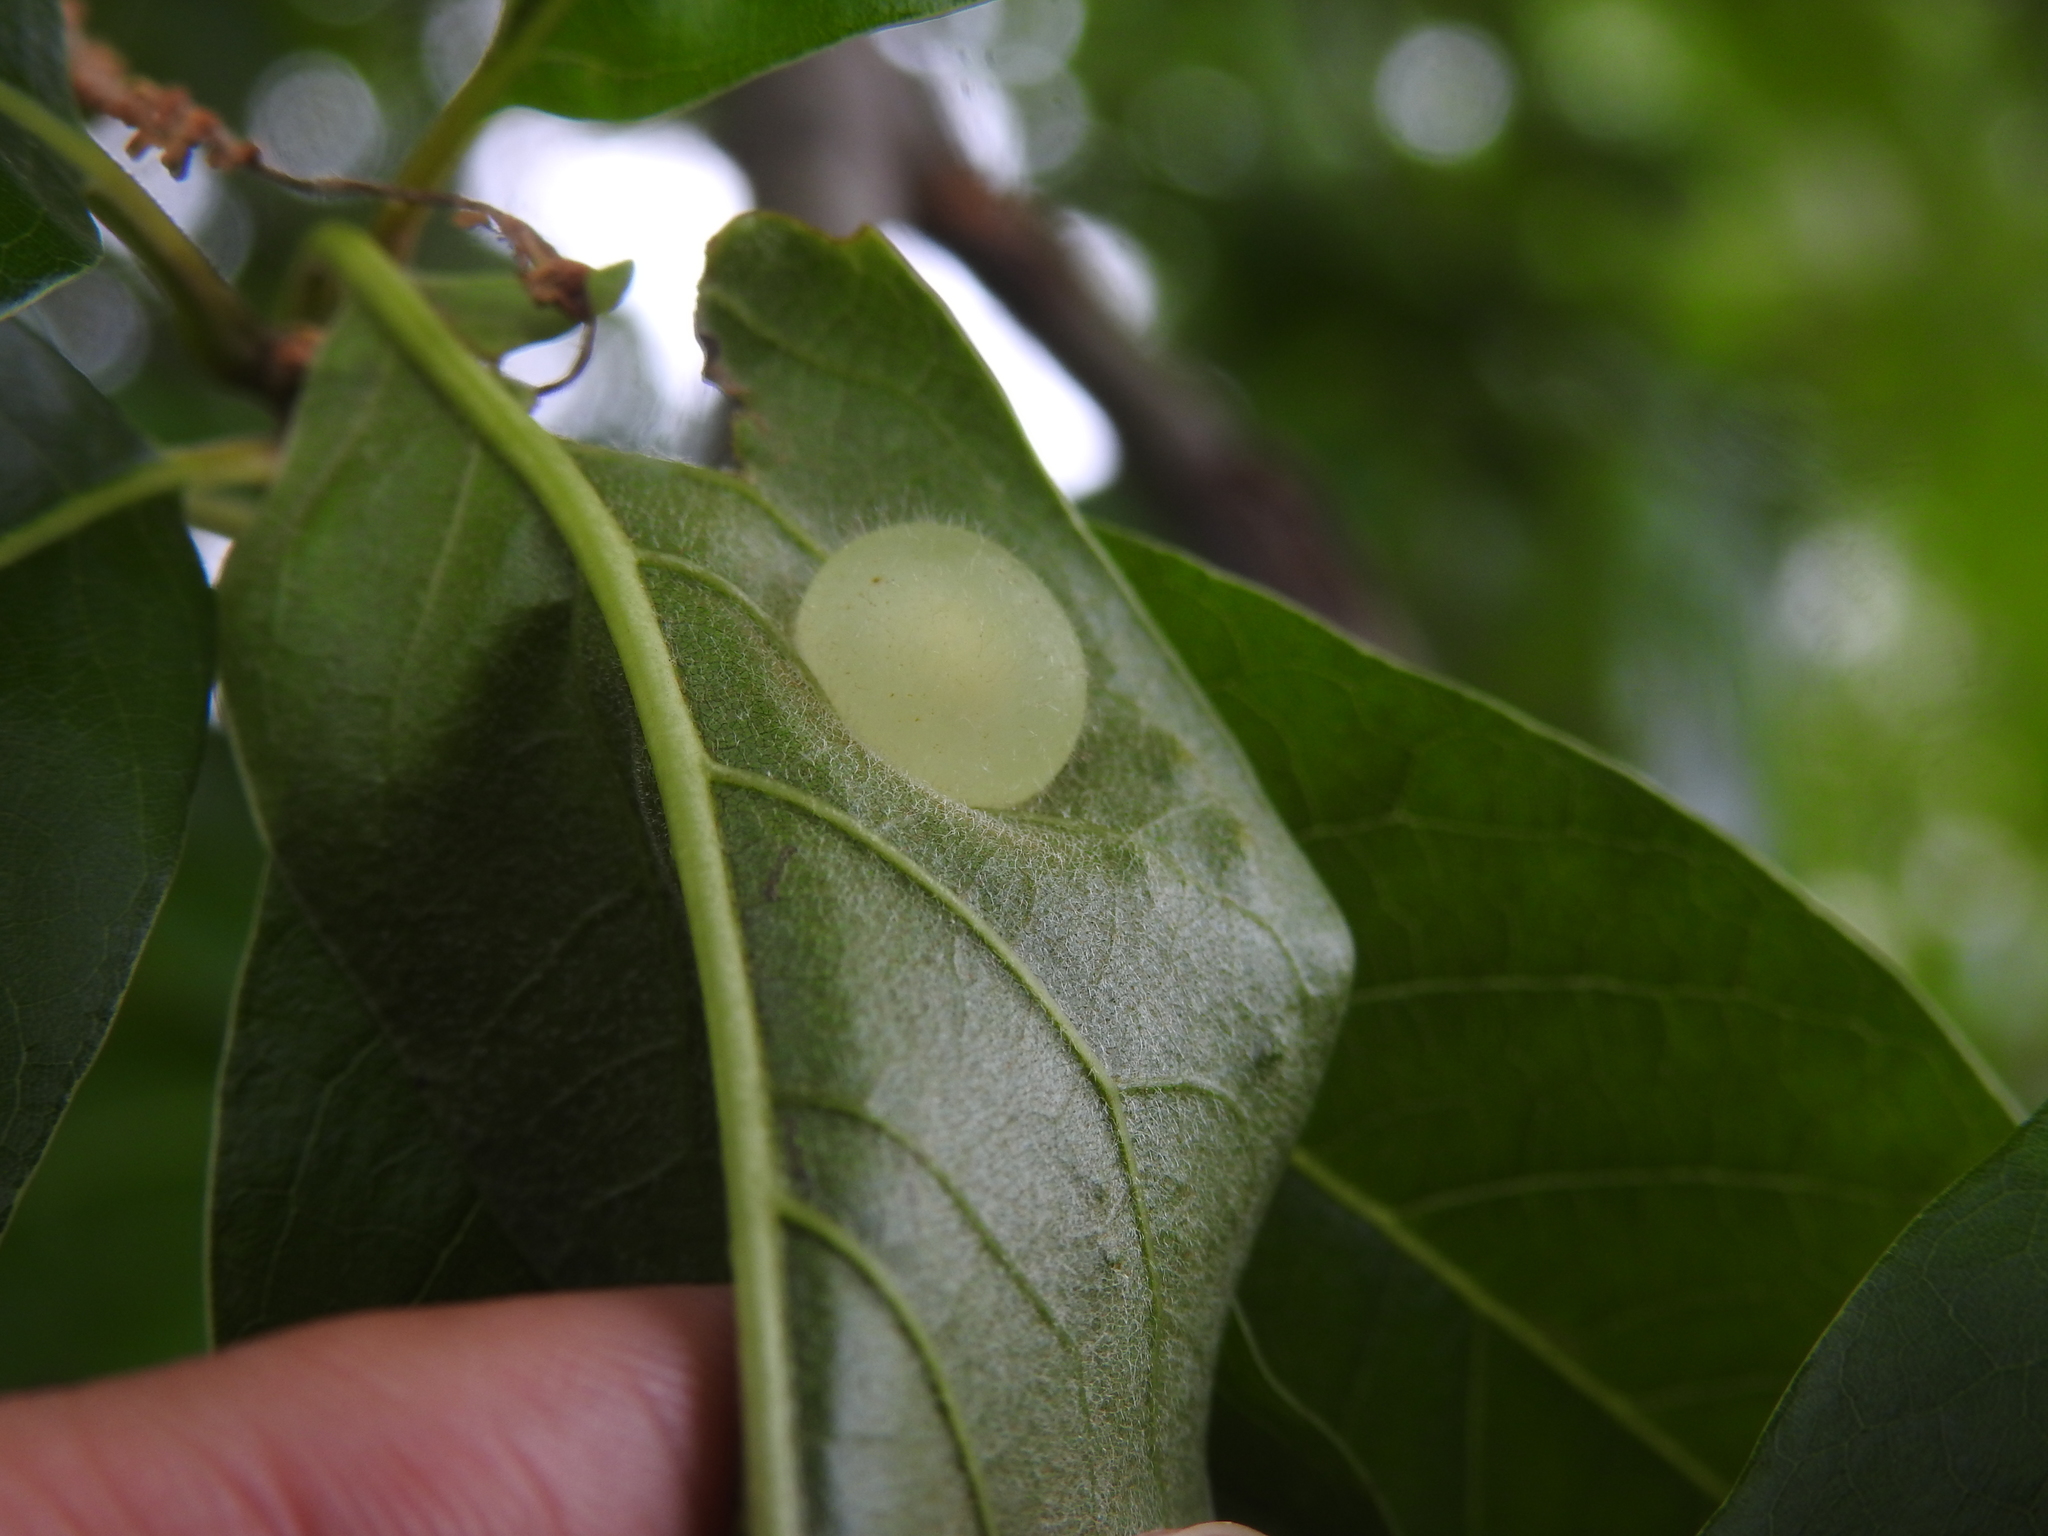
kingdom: Animalia
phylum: Arthropoda
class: Insecta
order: Hymenoptera
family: Cynipidae
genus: Amphibolips
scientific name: Amphibolips
